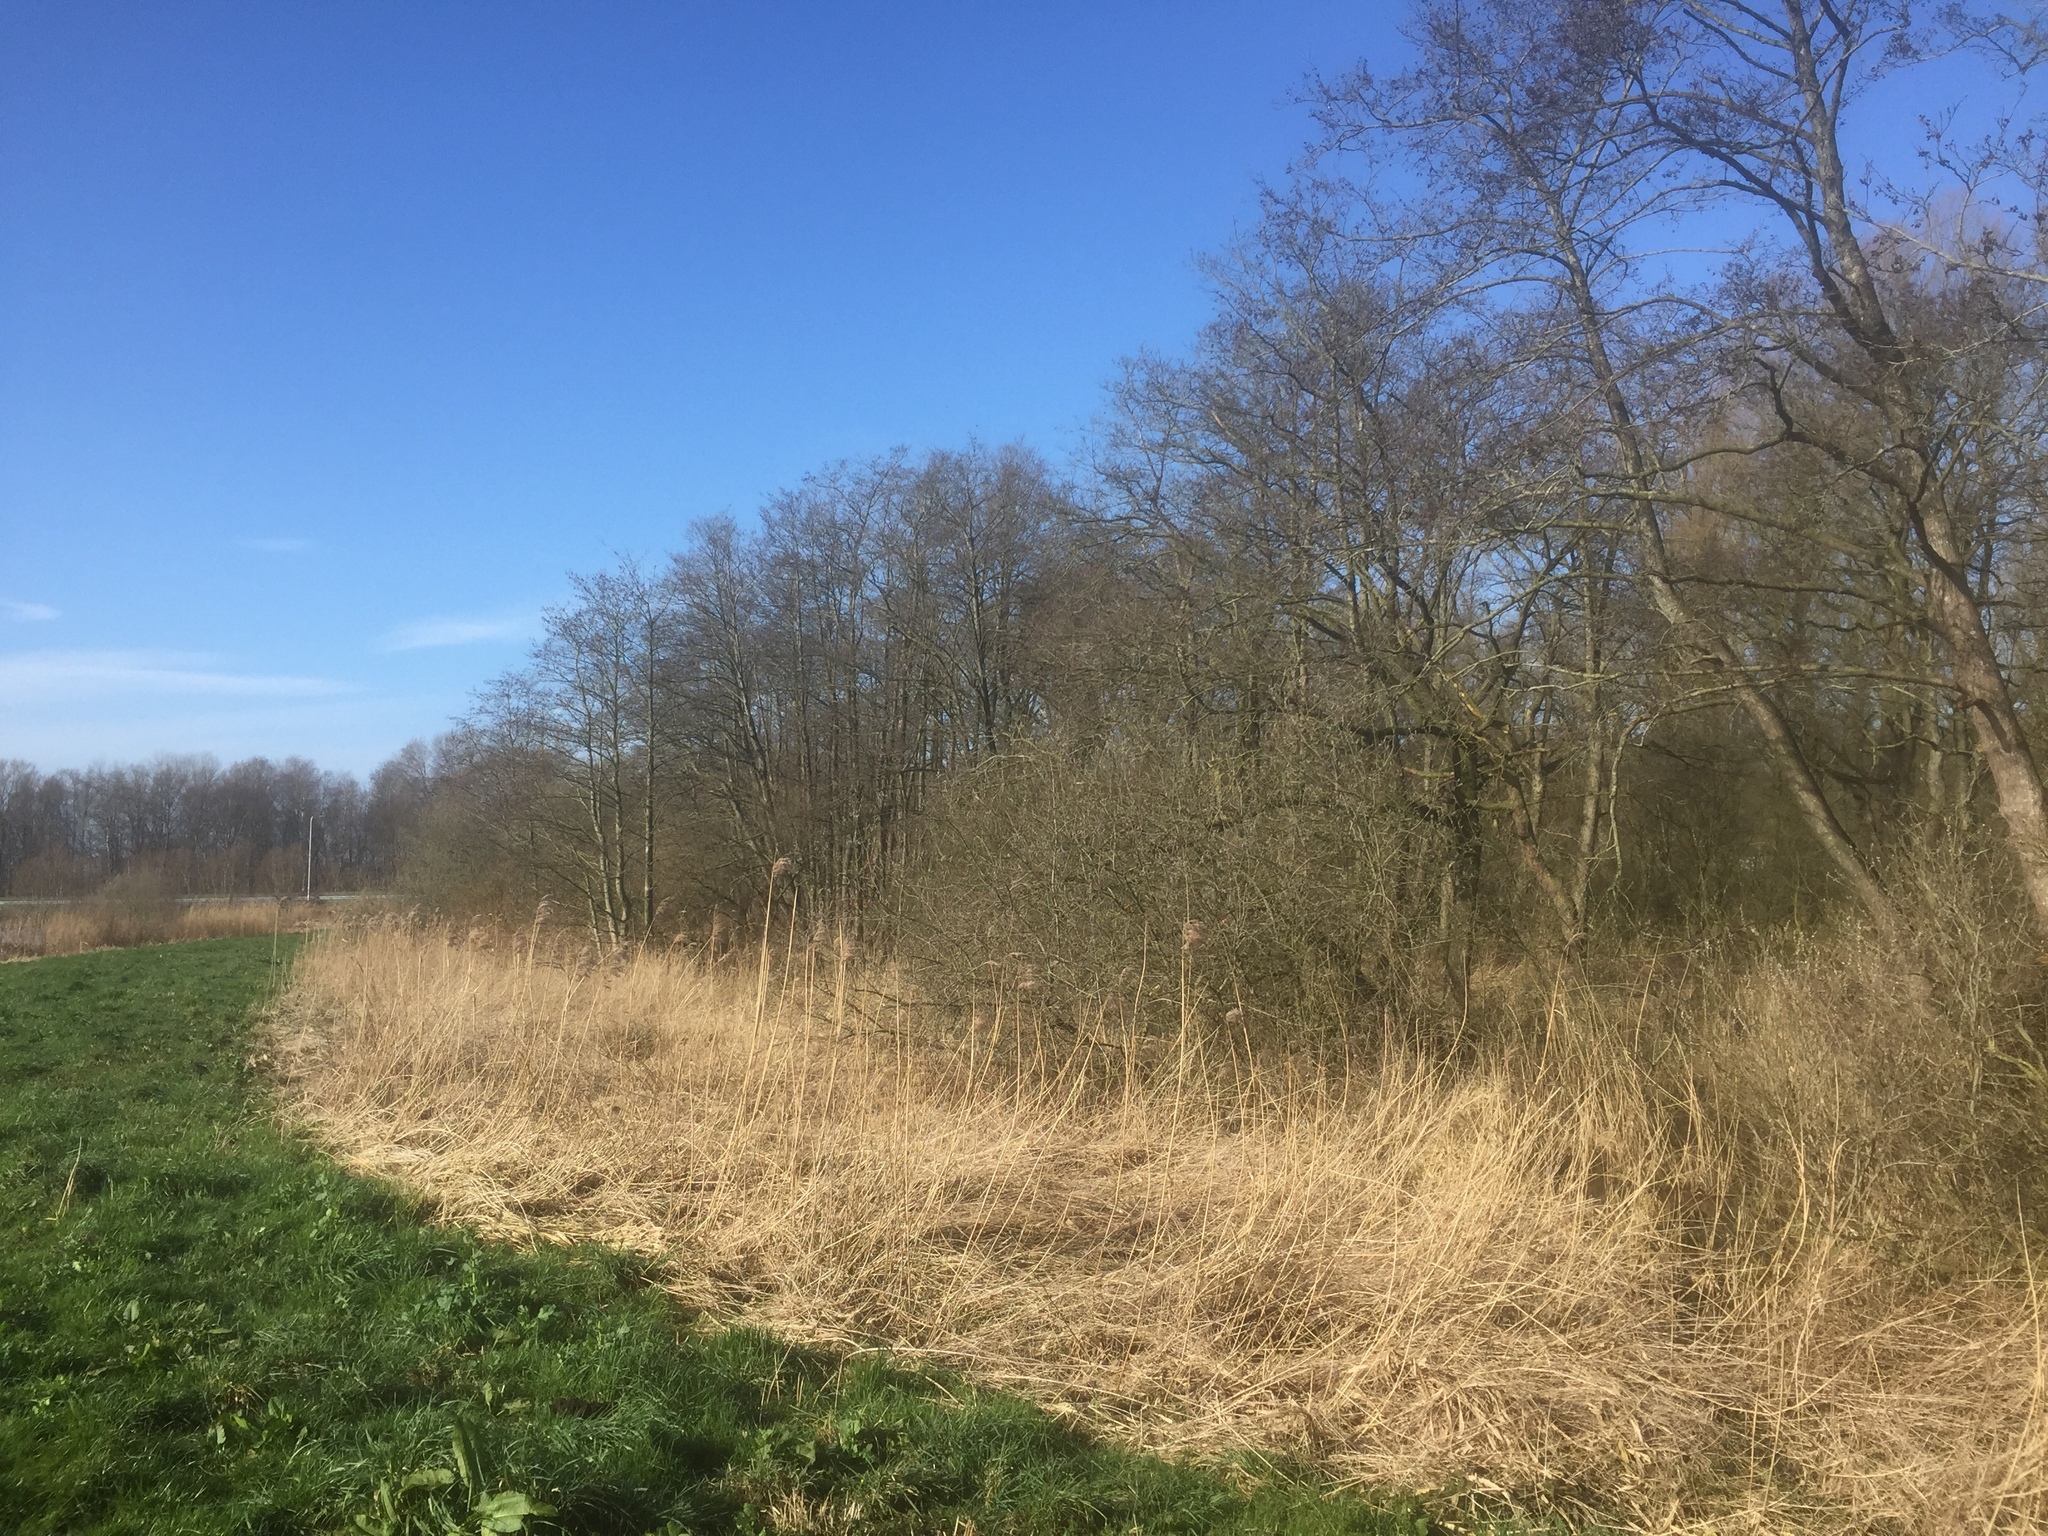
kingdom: Plantae
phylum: Tracheophyta
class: Liliopsida
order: Poales
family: Poaceae
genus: Phragmites
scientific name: Phragmites australis
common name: Common reed
